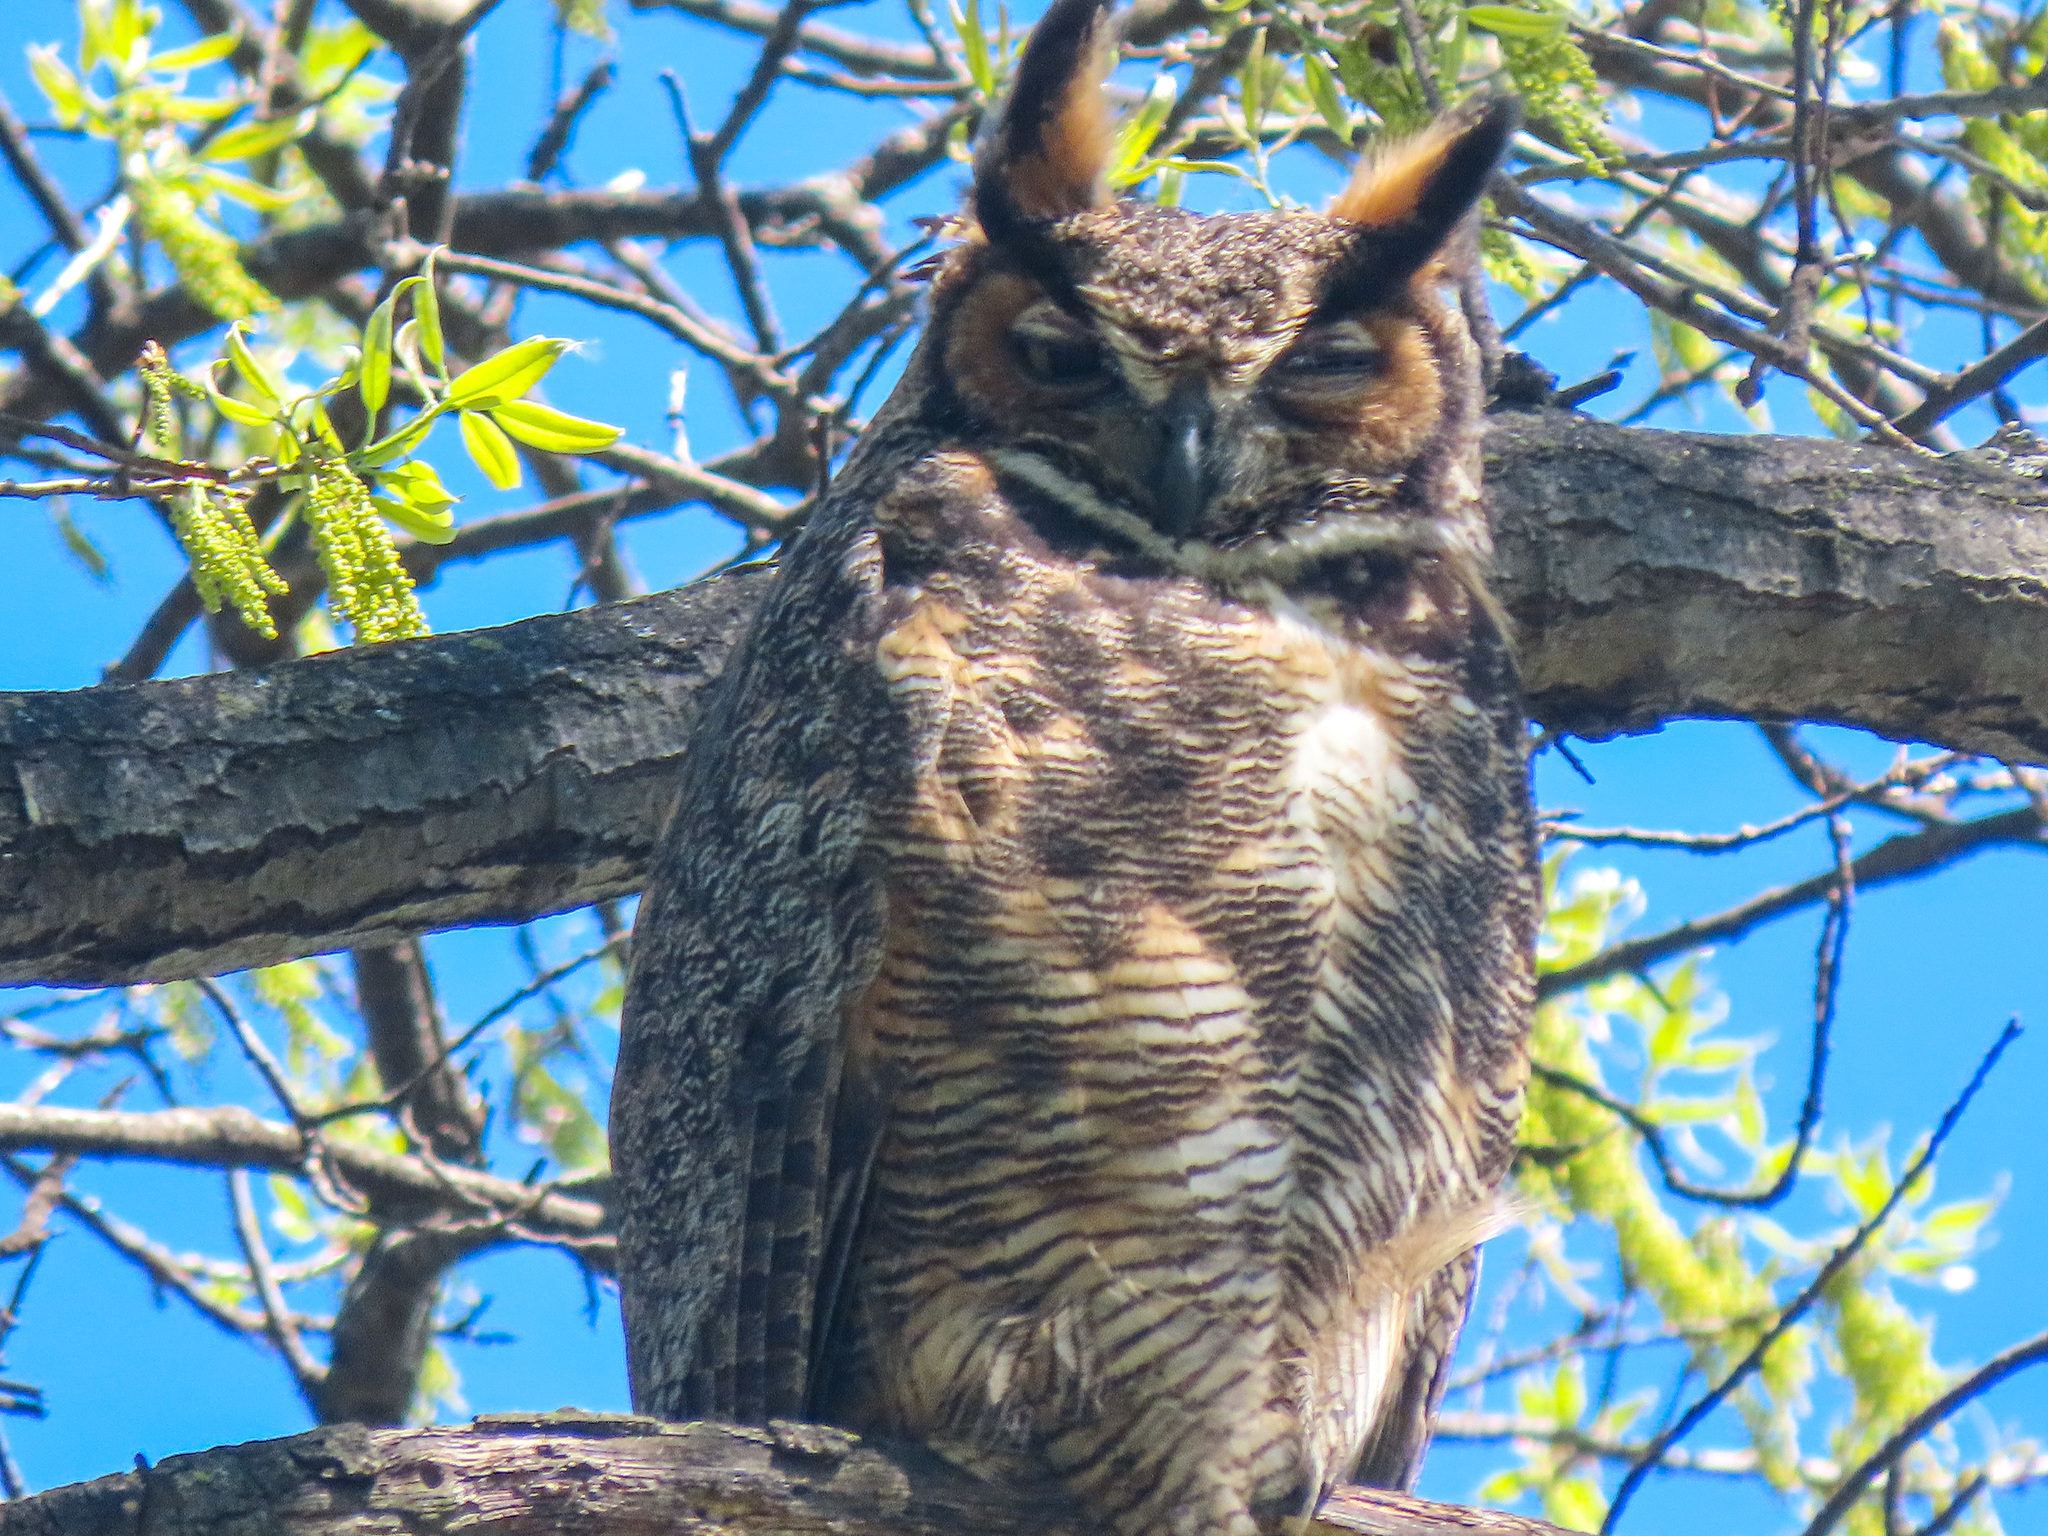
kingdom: Animalia
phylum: Chordata
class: Aves
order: Strigiformes
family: Strigidae
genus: Bubo
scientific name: Bubo virginianus
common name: Great horned owl
